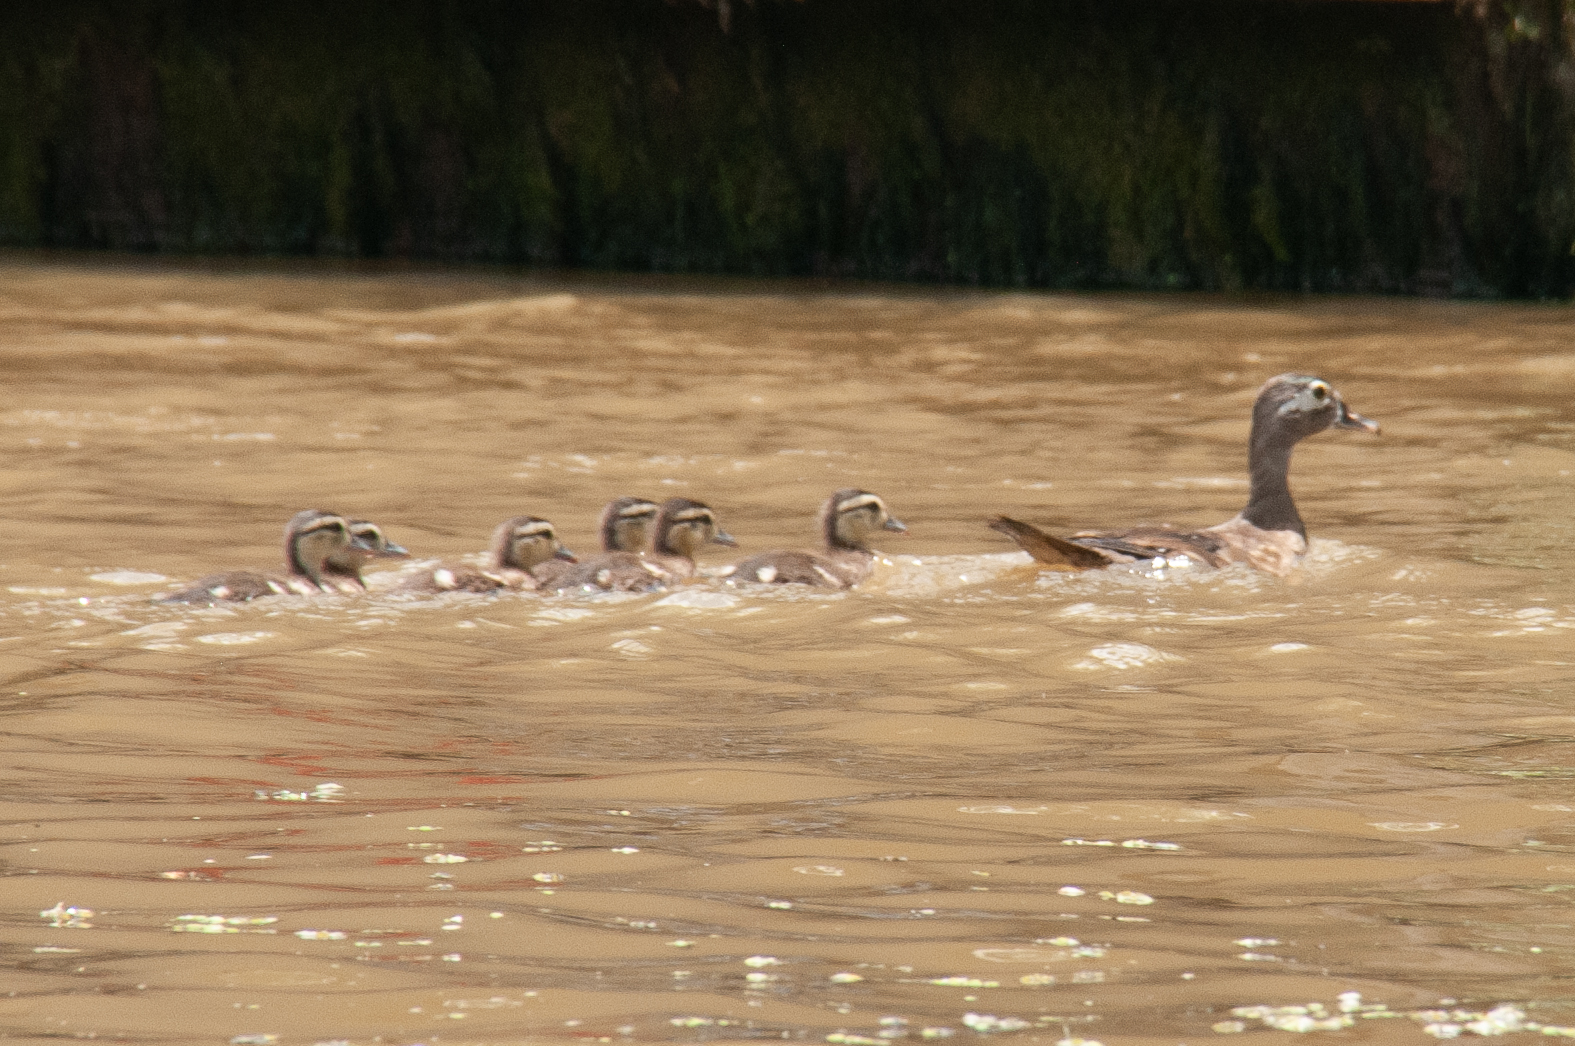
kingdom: Animalia
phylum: Chordata
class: Aves
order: Anseriformes
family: Anatidae
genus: Aix
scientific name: Aix sponsa
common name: Wood duck
